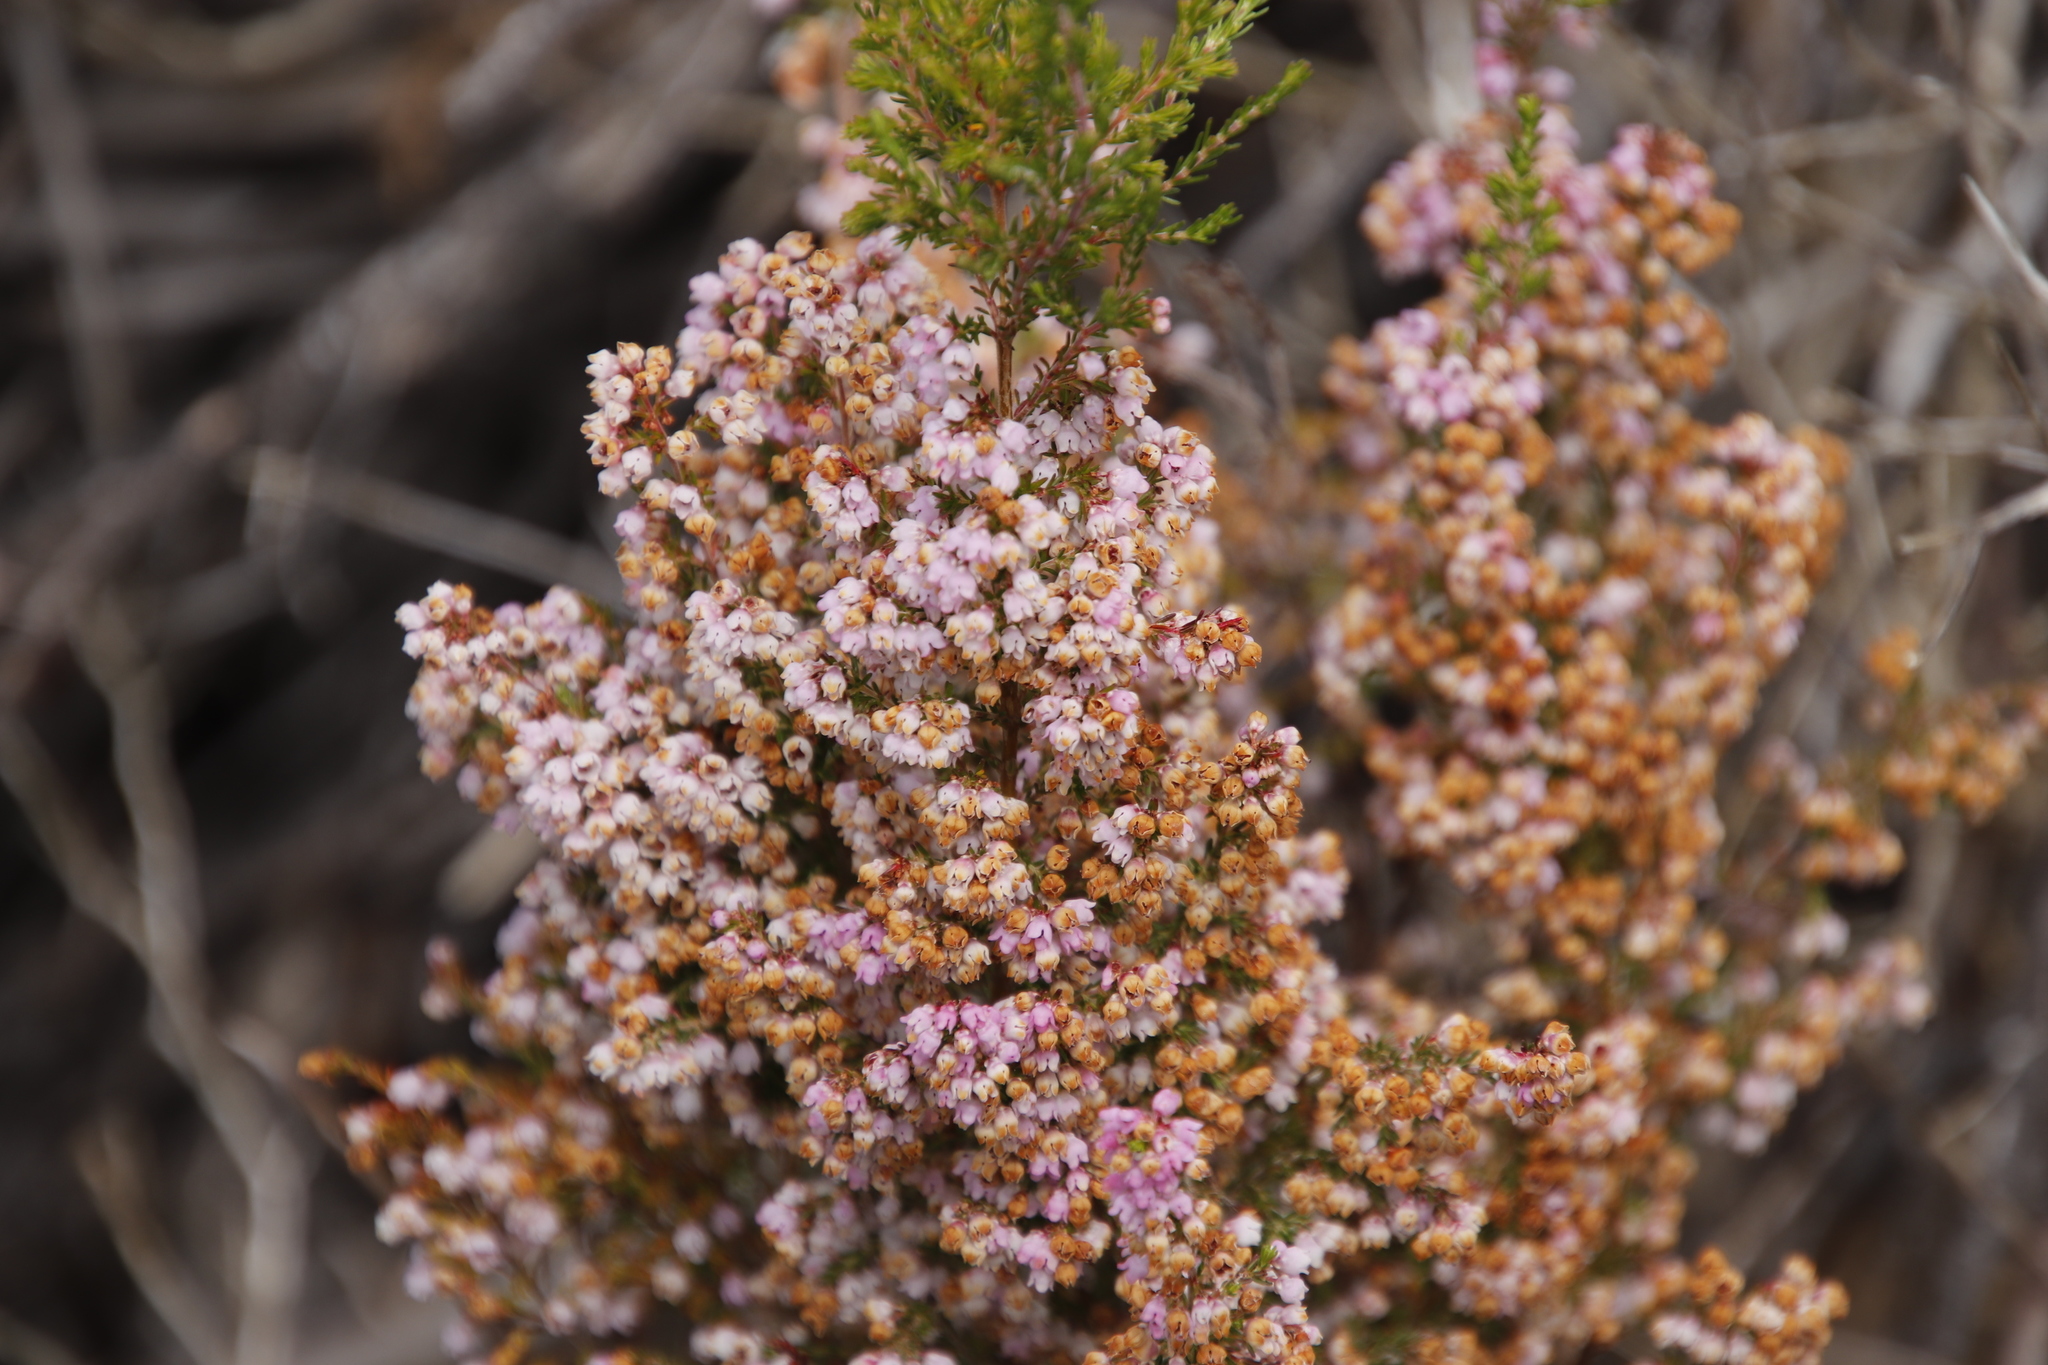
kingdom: Plantae
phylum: Tracheophyta
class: Magnoliopsida
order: Ericales
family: Ericaceae
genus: Erica
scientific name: Erica mauritanica
